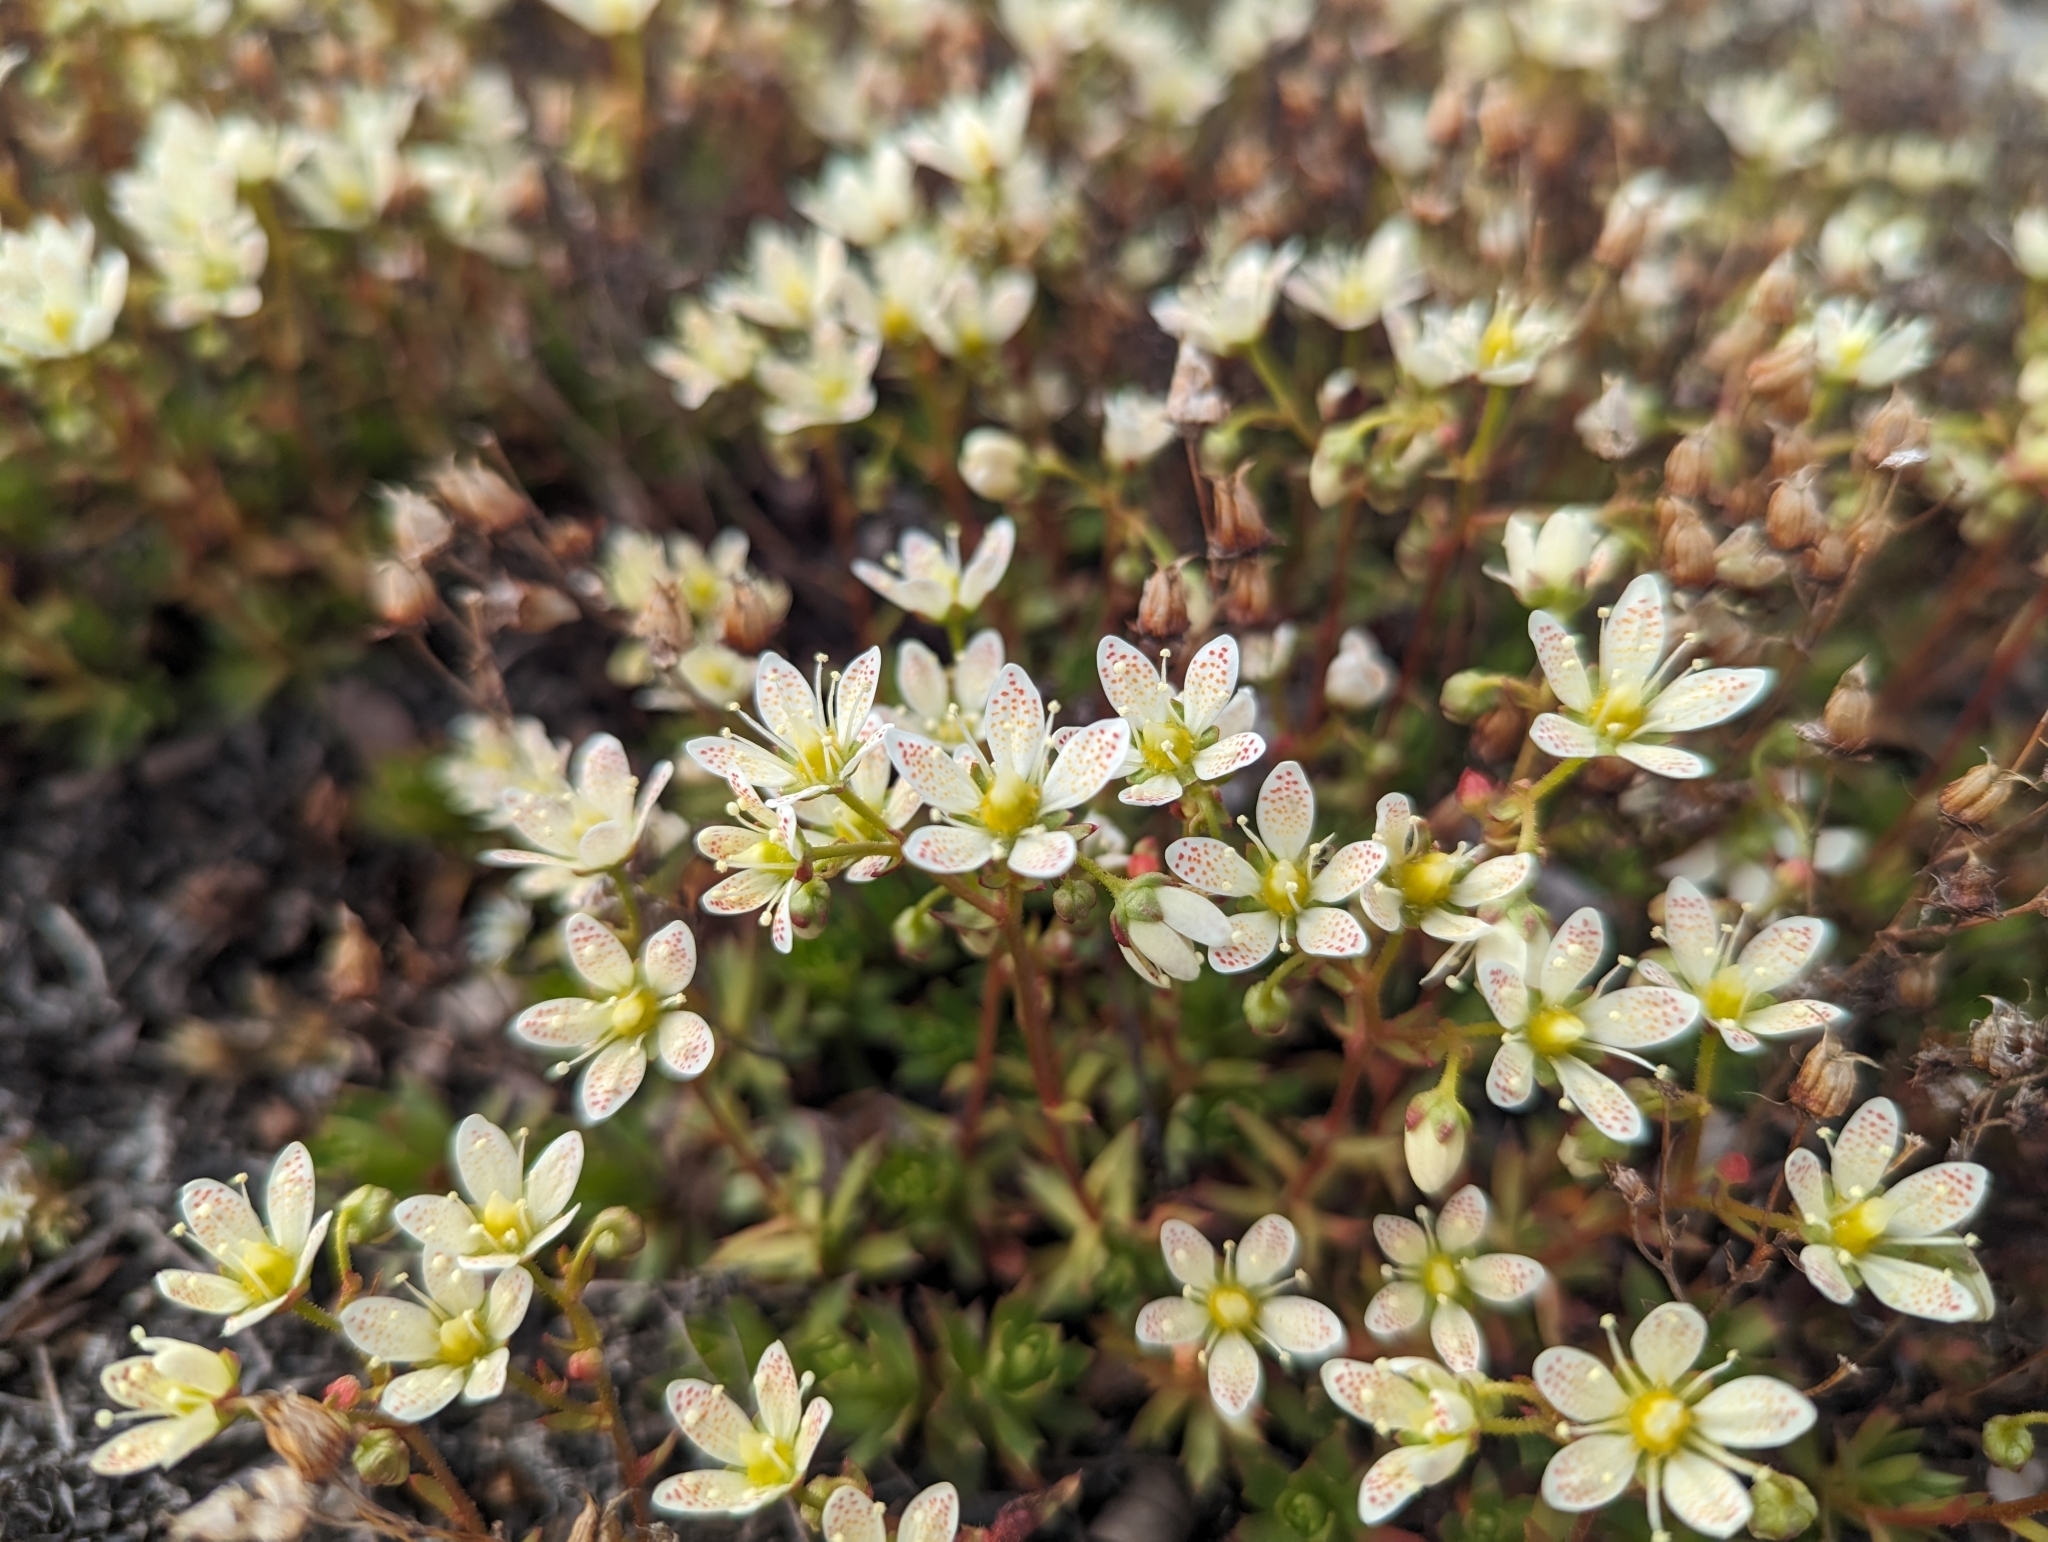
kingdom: Plantae
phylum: Tracheophyta
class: Magnoliopsida
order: Saxifragales
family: Saxifragaceae
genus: Saxifraga
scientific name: Saxifraga tricuspidata
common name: Prickly saxifrage
